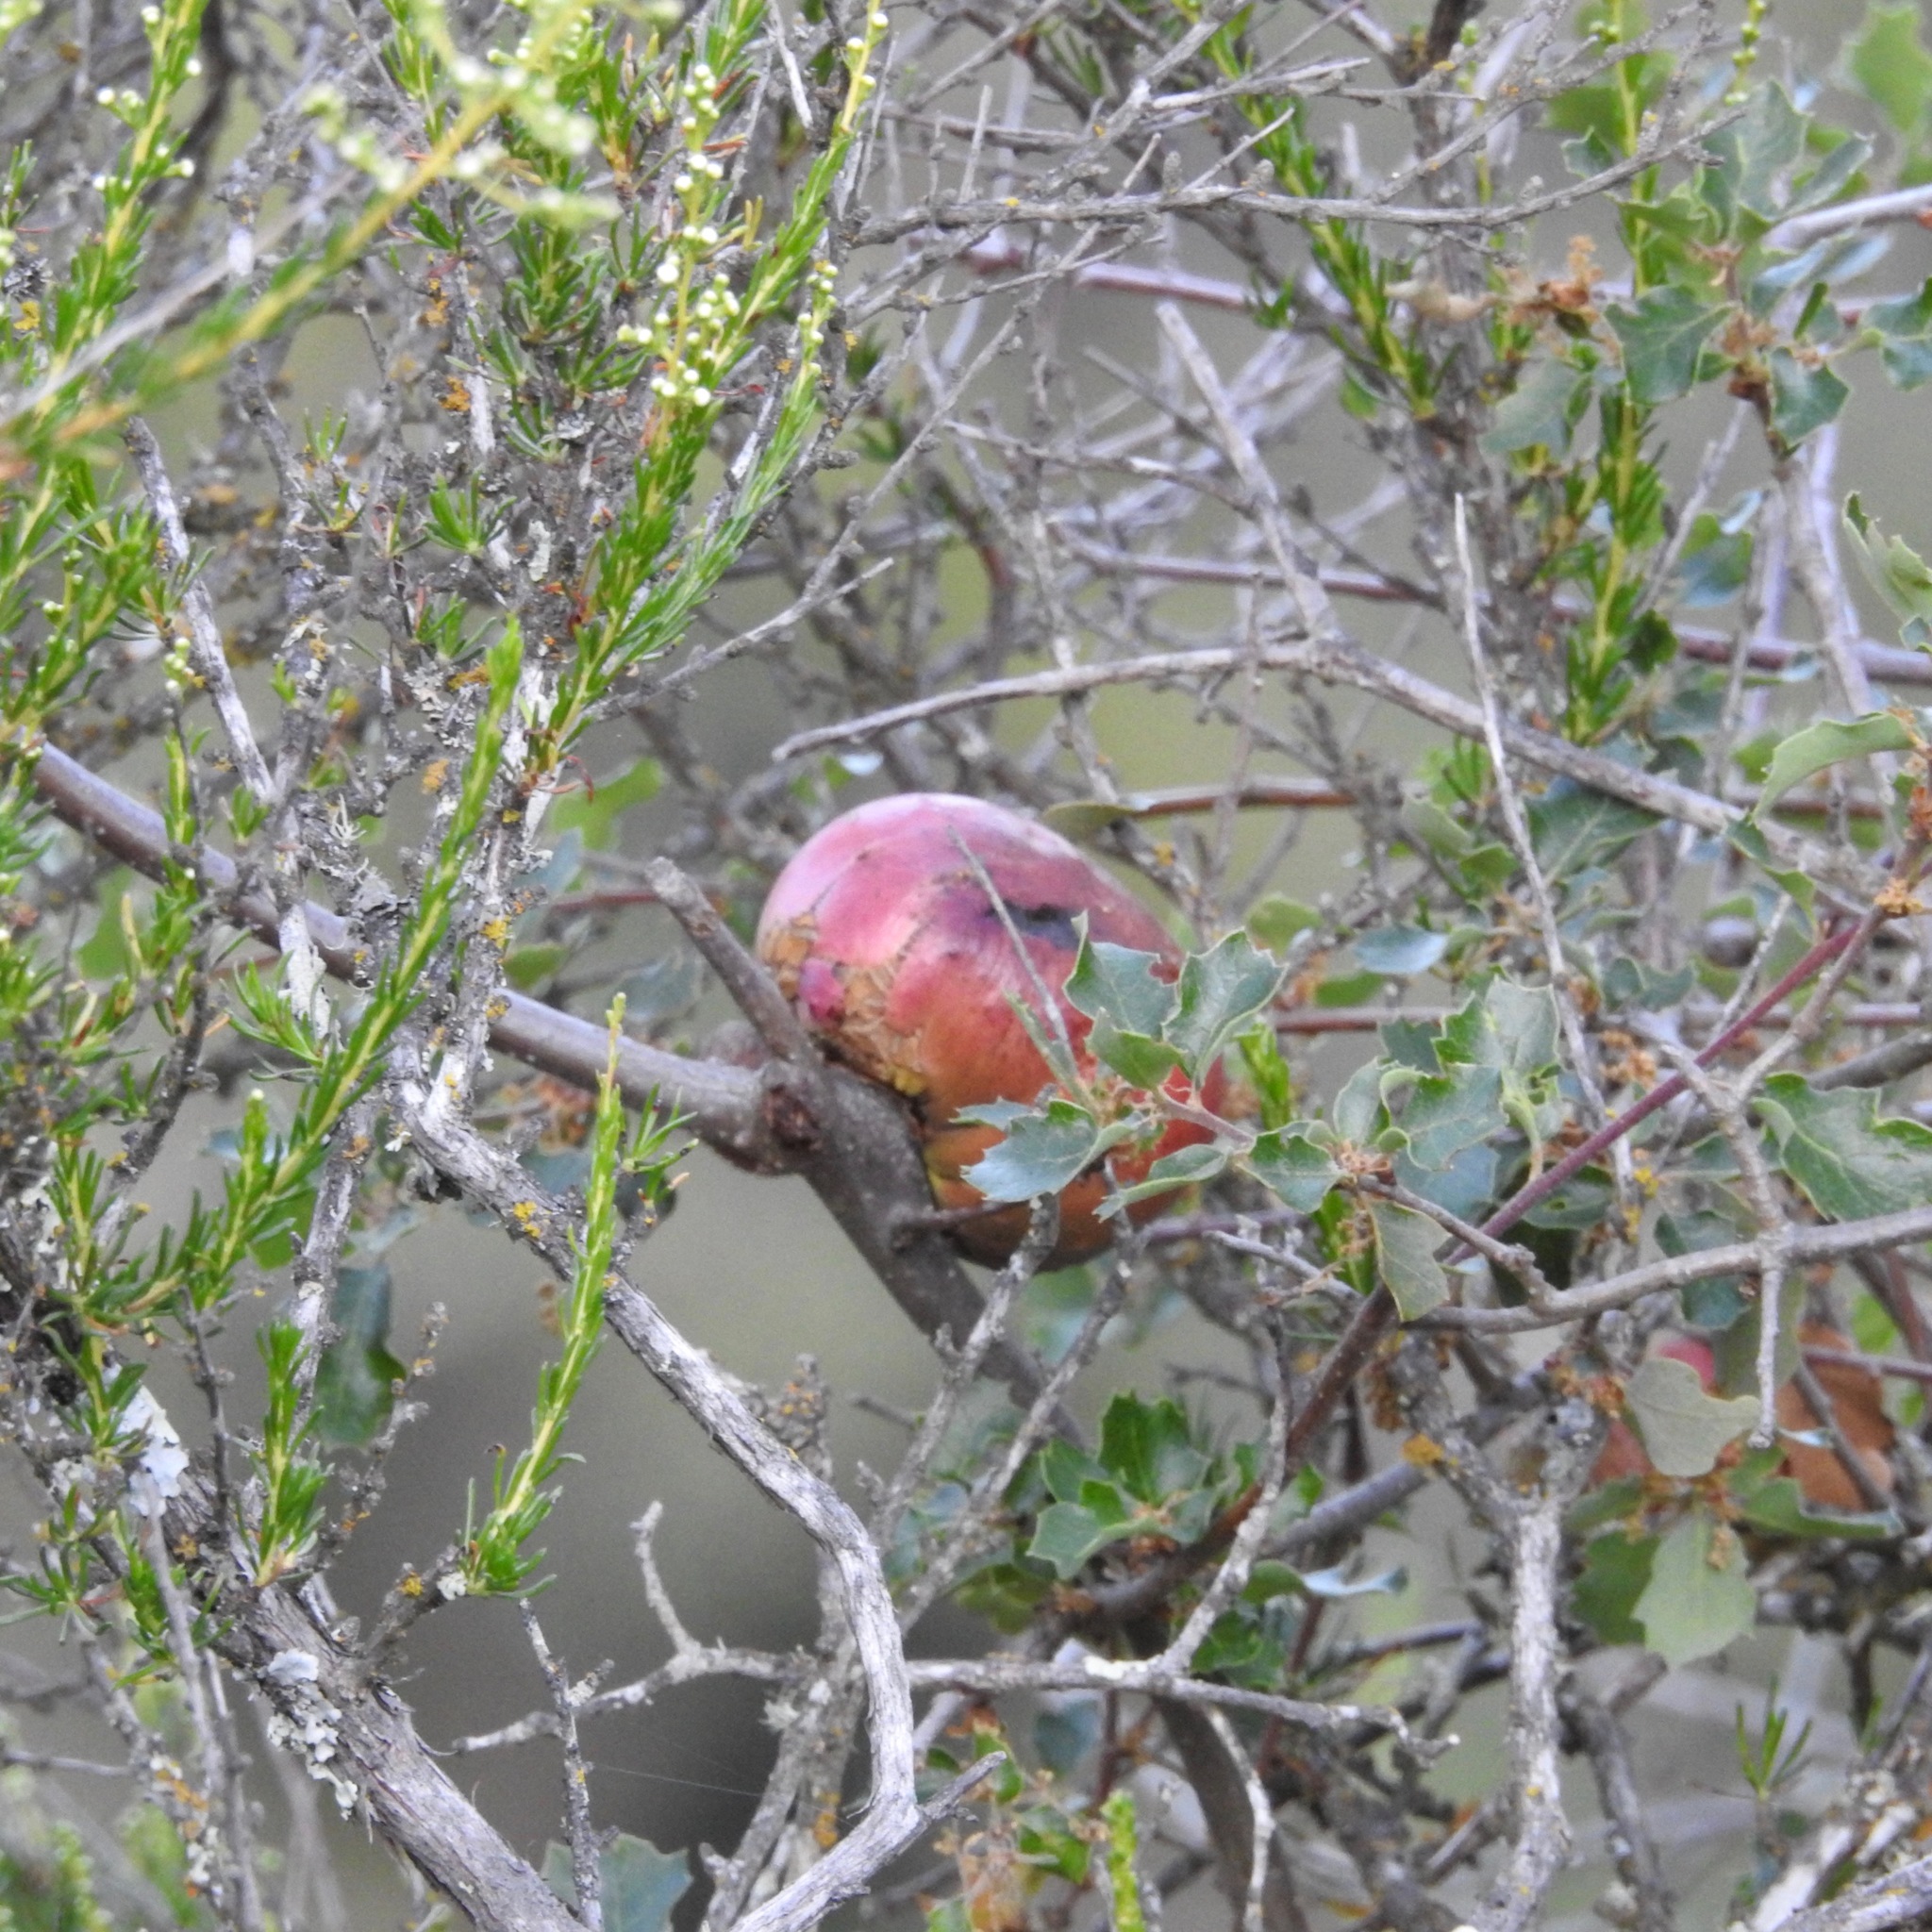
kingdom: Animalia
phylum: Arthropoda
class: Insecta
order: Hymenoptera
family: Cynipidae
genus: Andricus
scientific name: Andricus quercuscalifornicus
